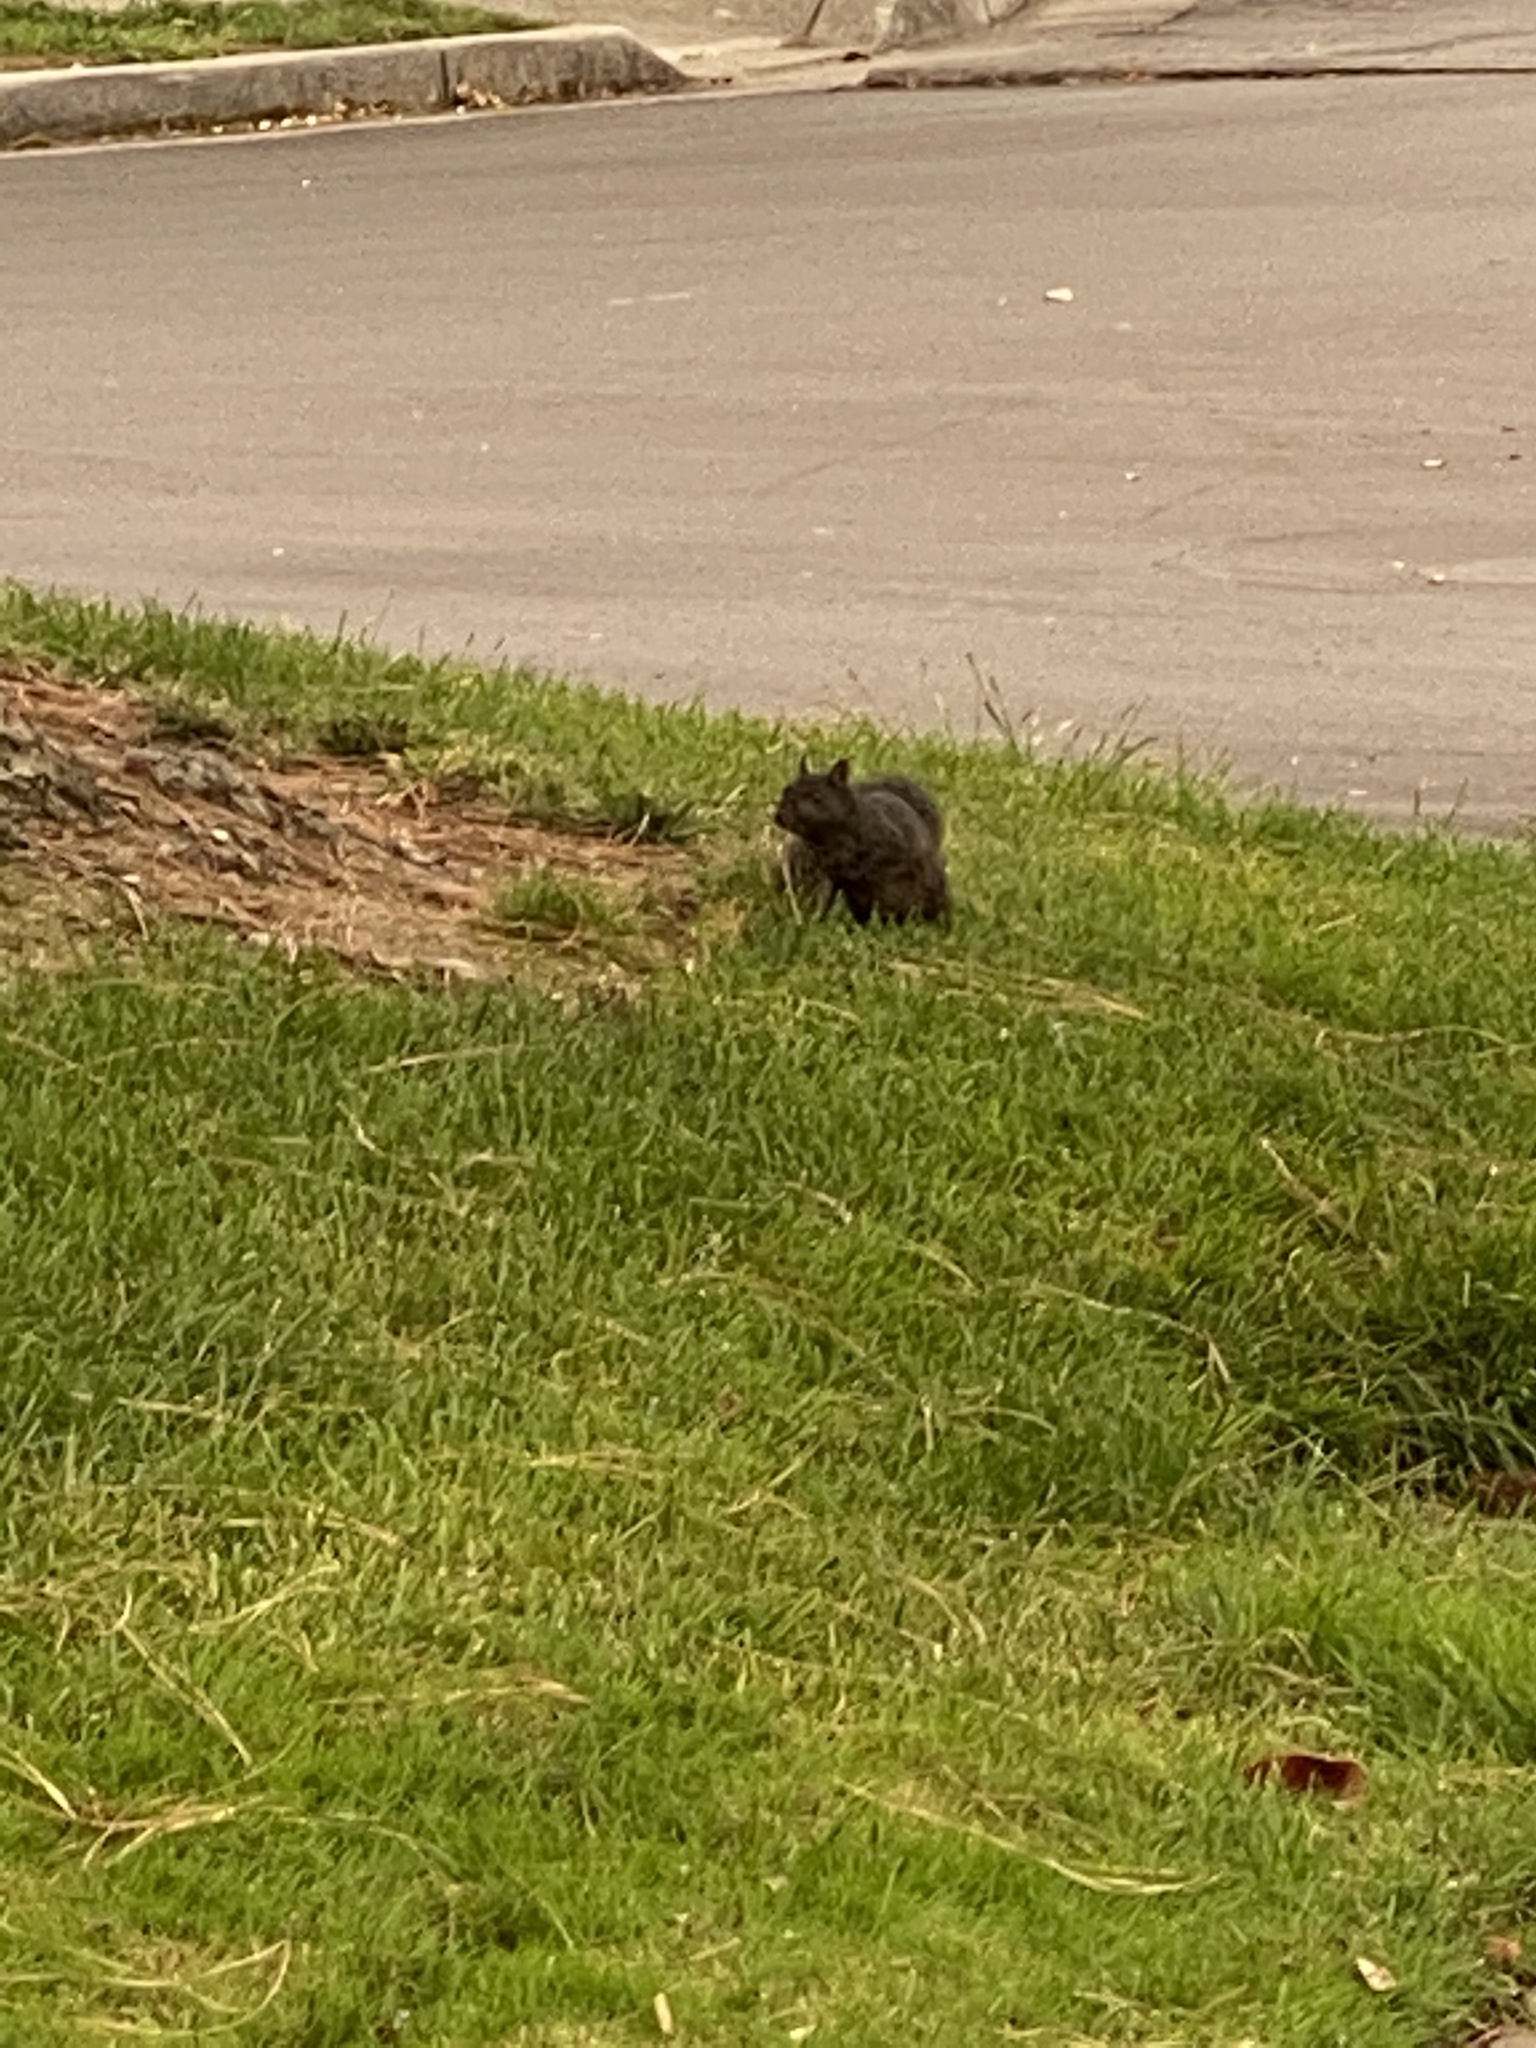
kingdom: Animalia
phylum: Chordata
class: Mammalia
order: Rodentia
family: Sciuridae
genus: Sciurus
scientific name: Sciurus carolinensis
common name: Eastern gray squirrel
